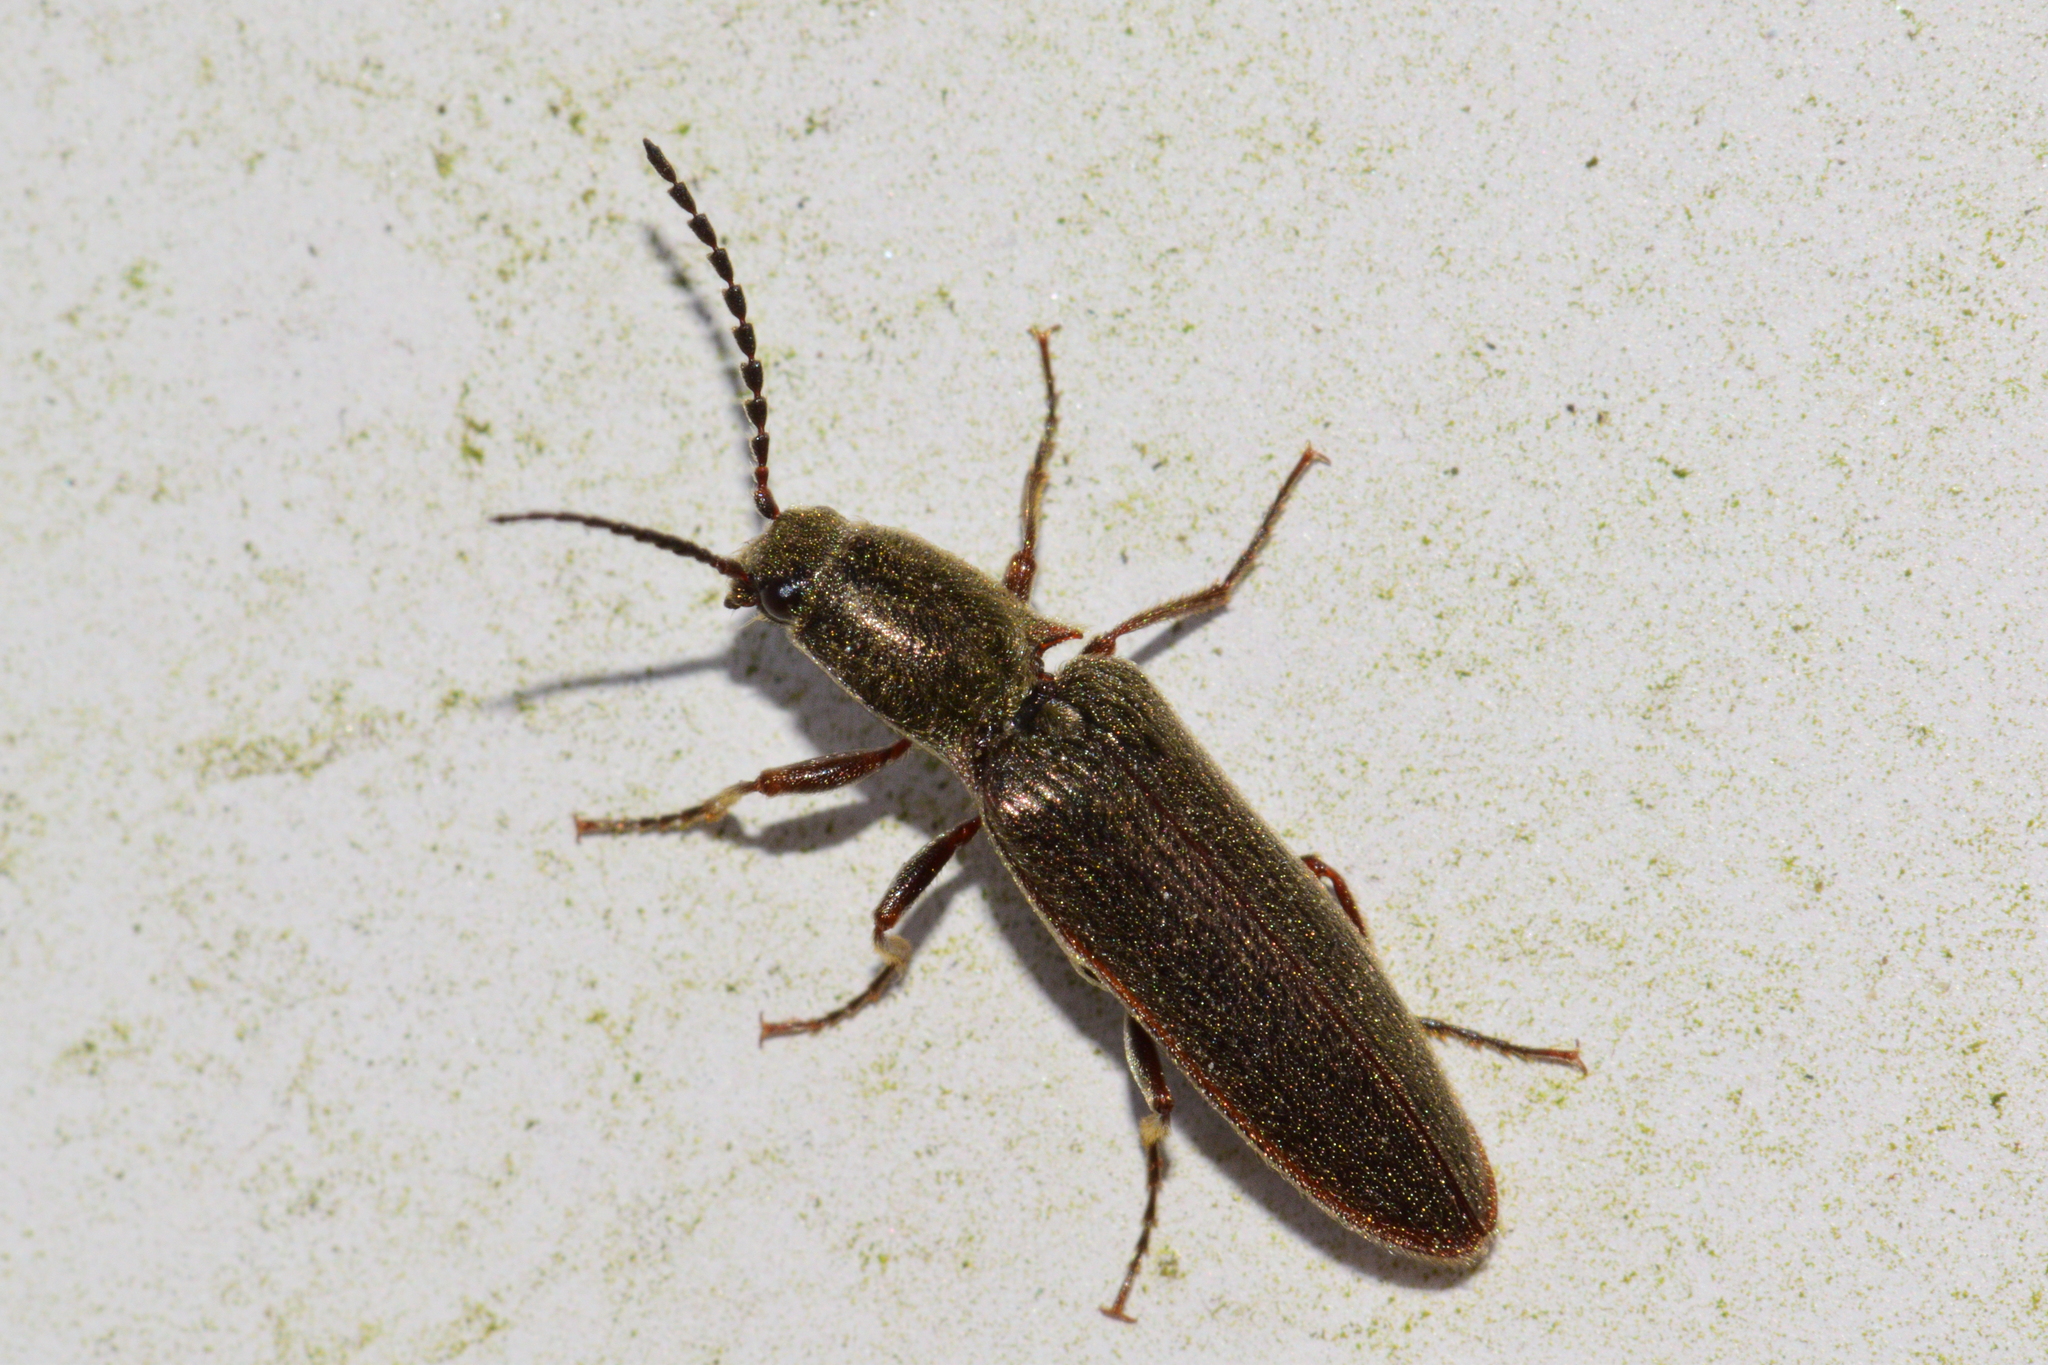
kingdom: Animalia
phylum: Arthropoda
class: Insecta
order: Coleoptera
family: Elateridae
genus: Sylvanelater
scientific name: Sylvanelater cylindriformis
